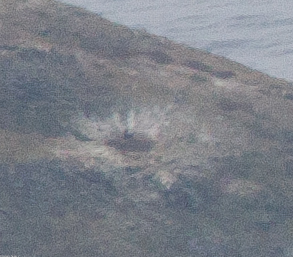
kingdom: Animalia
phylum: Chordata
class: Aves
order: Suliformes
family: Sulidae
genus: Sula
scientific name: Sula leucogaster
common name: Brown booby
